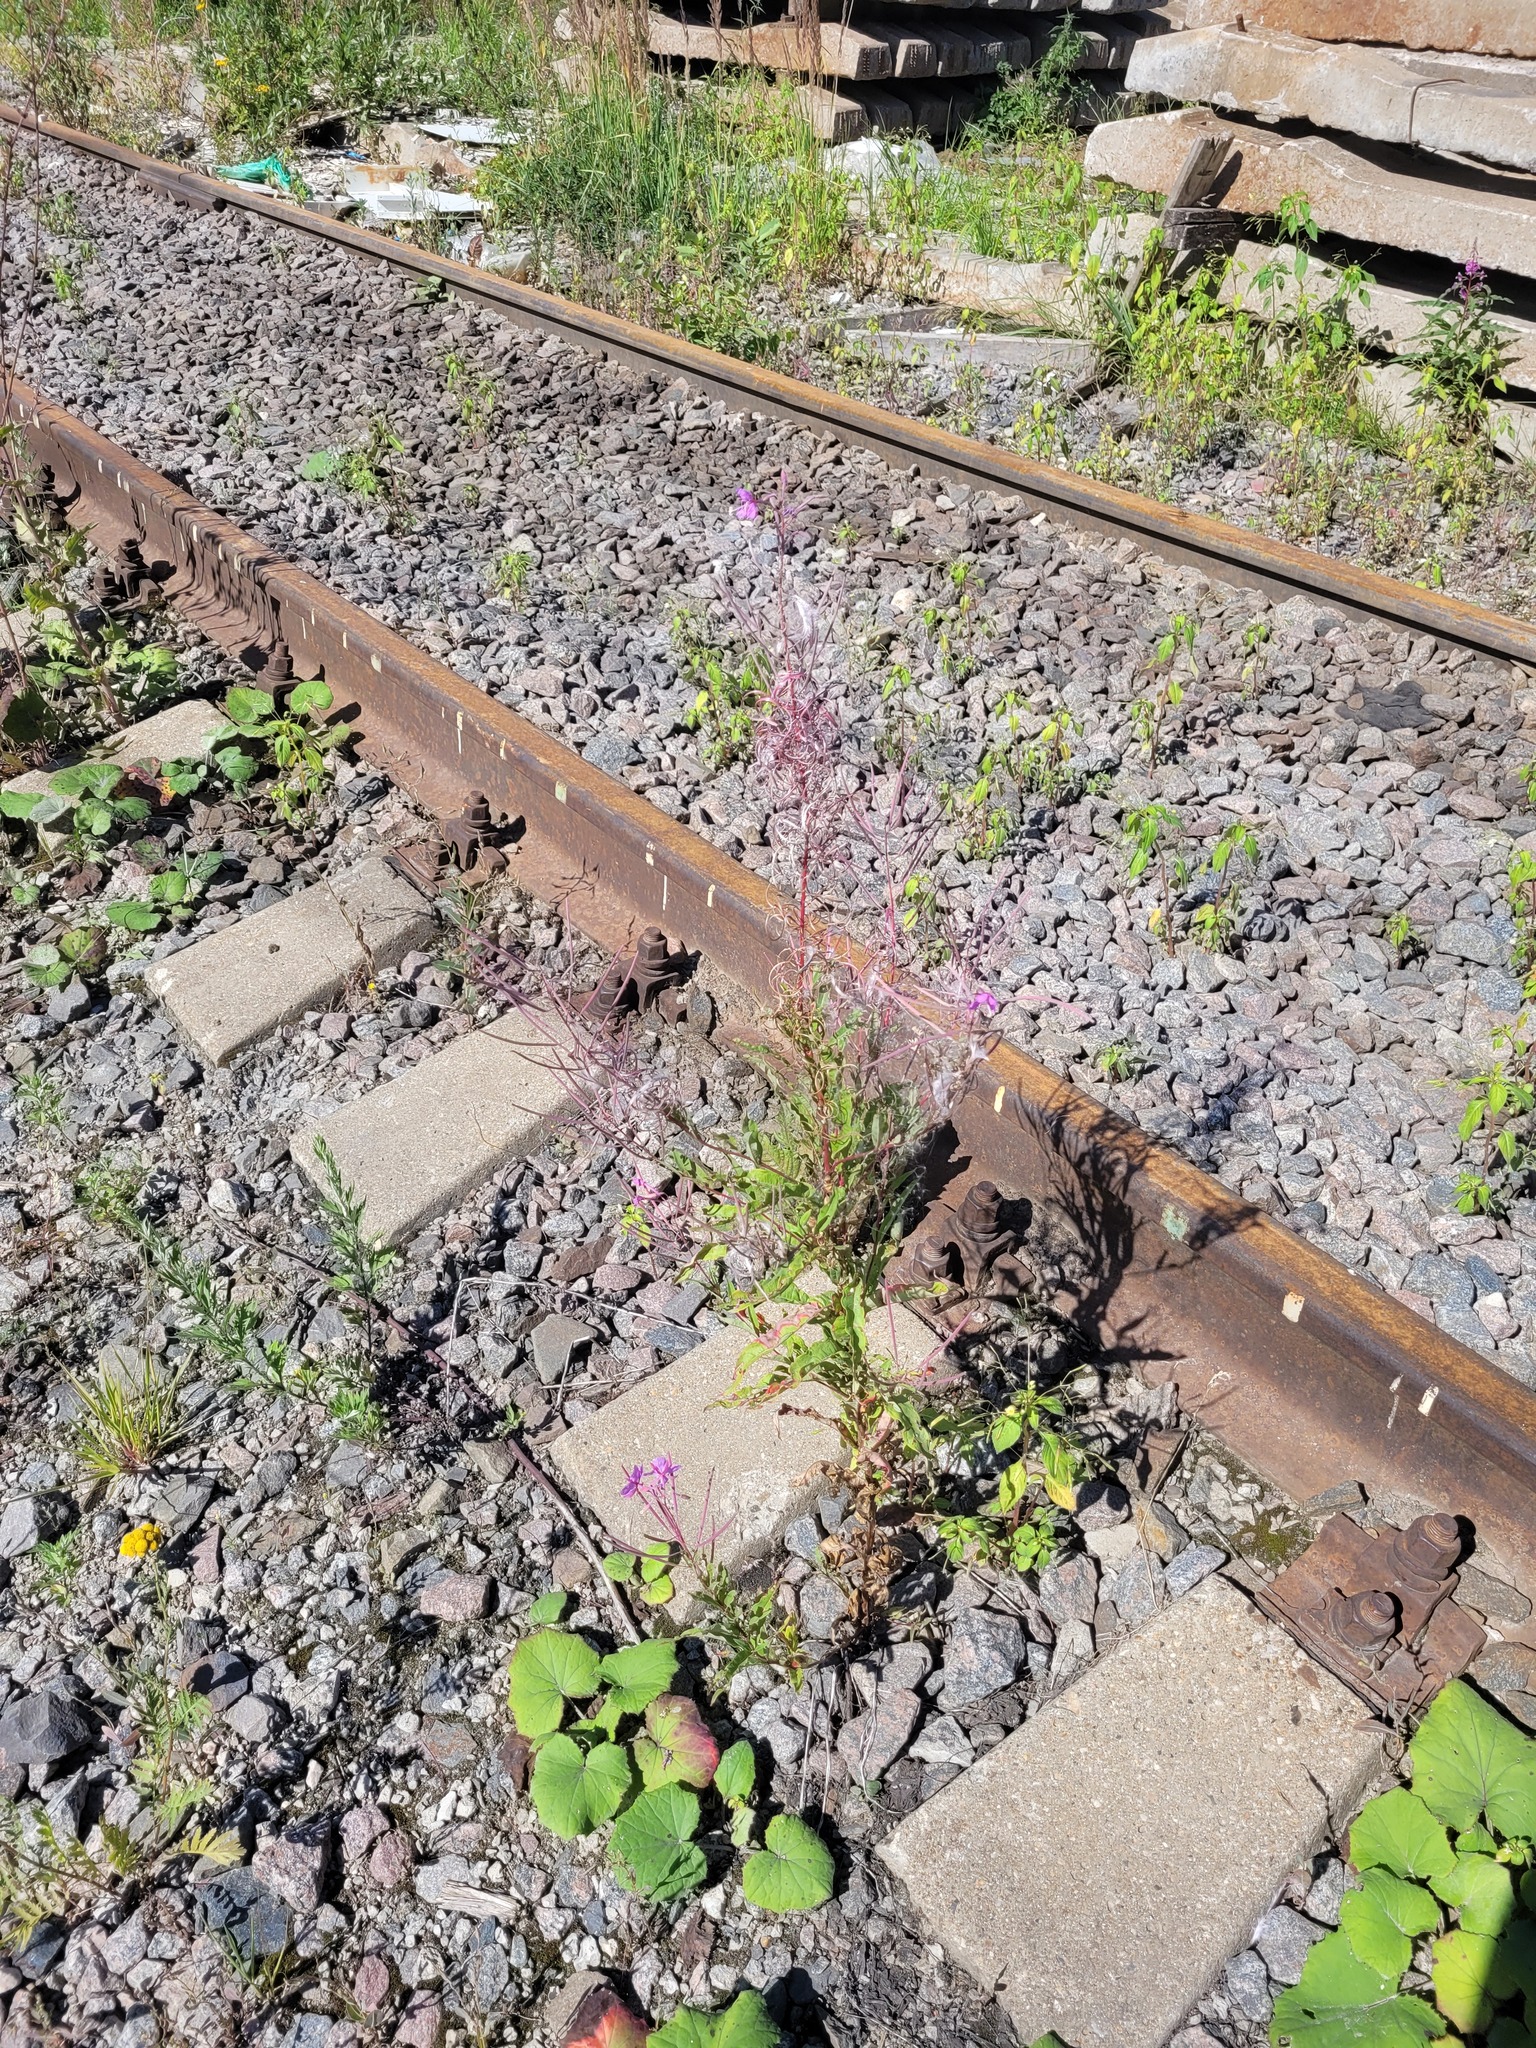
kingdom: Plantae
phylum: Tracheophyta
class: Magnoliopsida
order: Myrtales
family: Onagraceae
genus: Chamaenerion
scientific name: Chamaenerion angustifolium
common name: Fireweed
